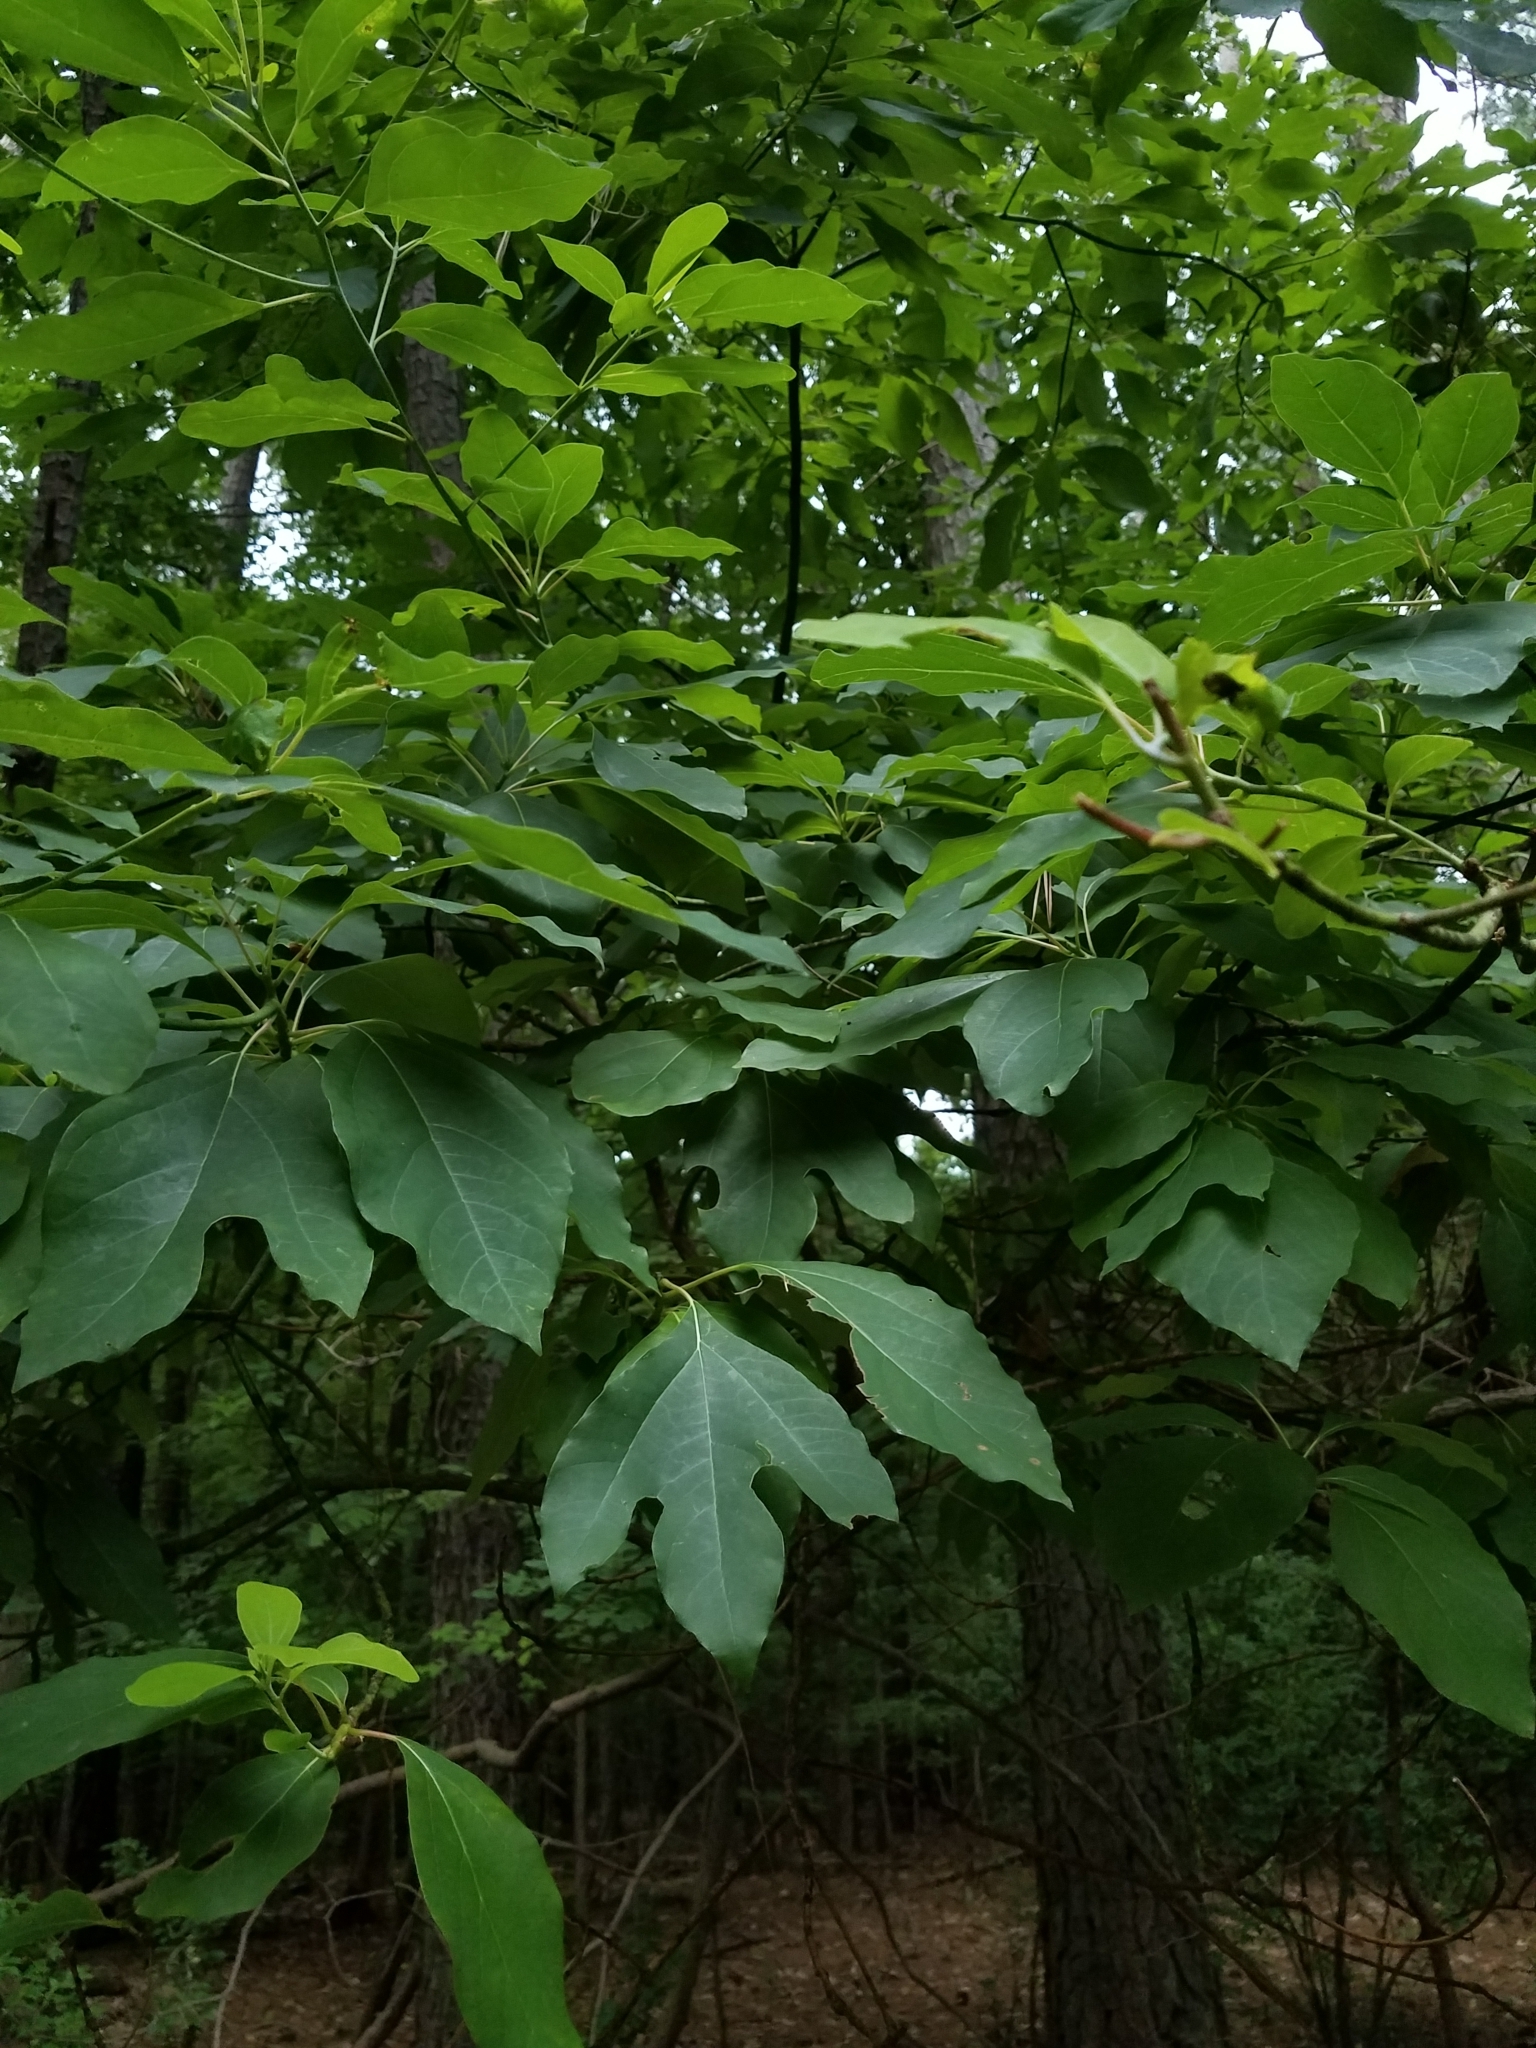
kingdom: Plantae
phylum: Tracheophyta
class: Magnoliopsida
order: Laurales
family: Lauraceae
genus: Sassafras
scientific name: Sassafras albidum
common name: Sassafras
